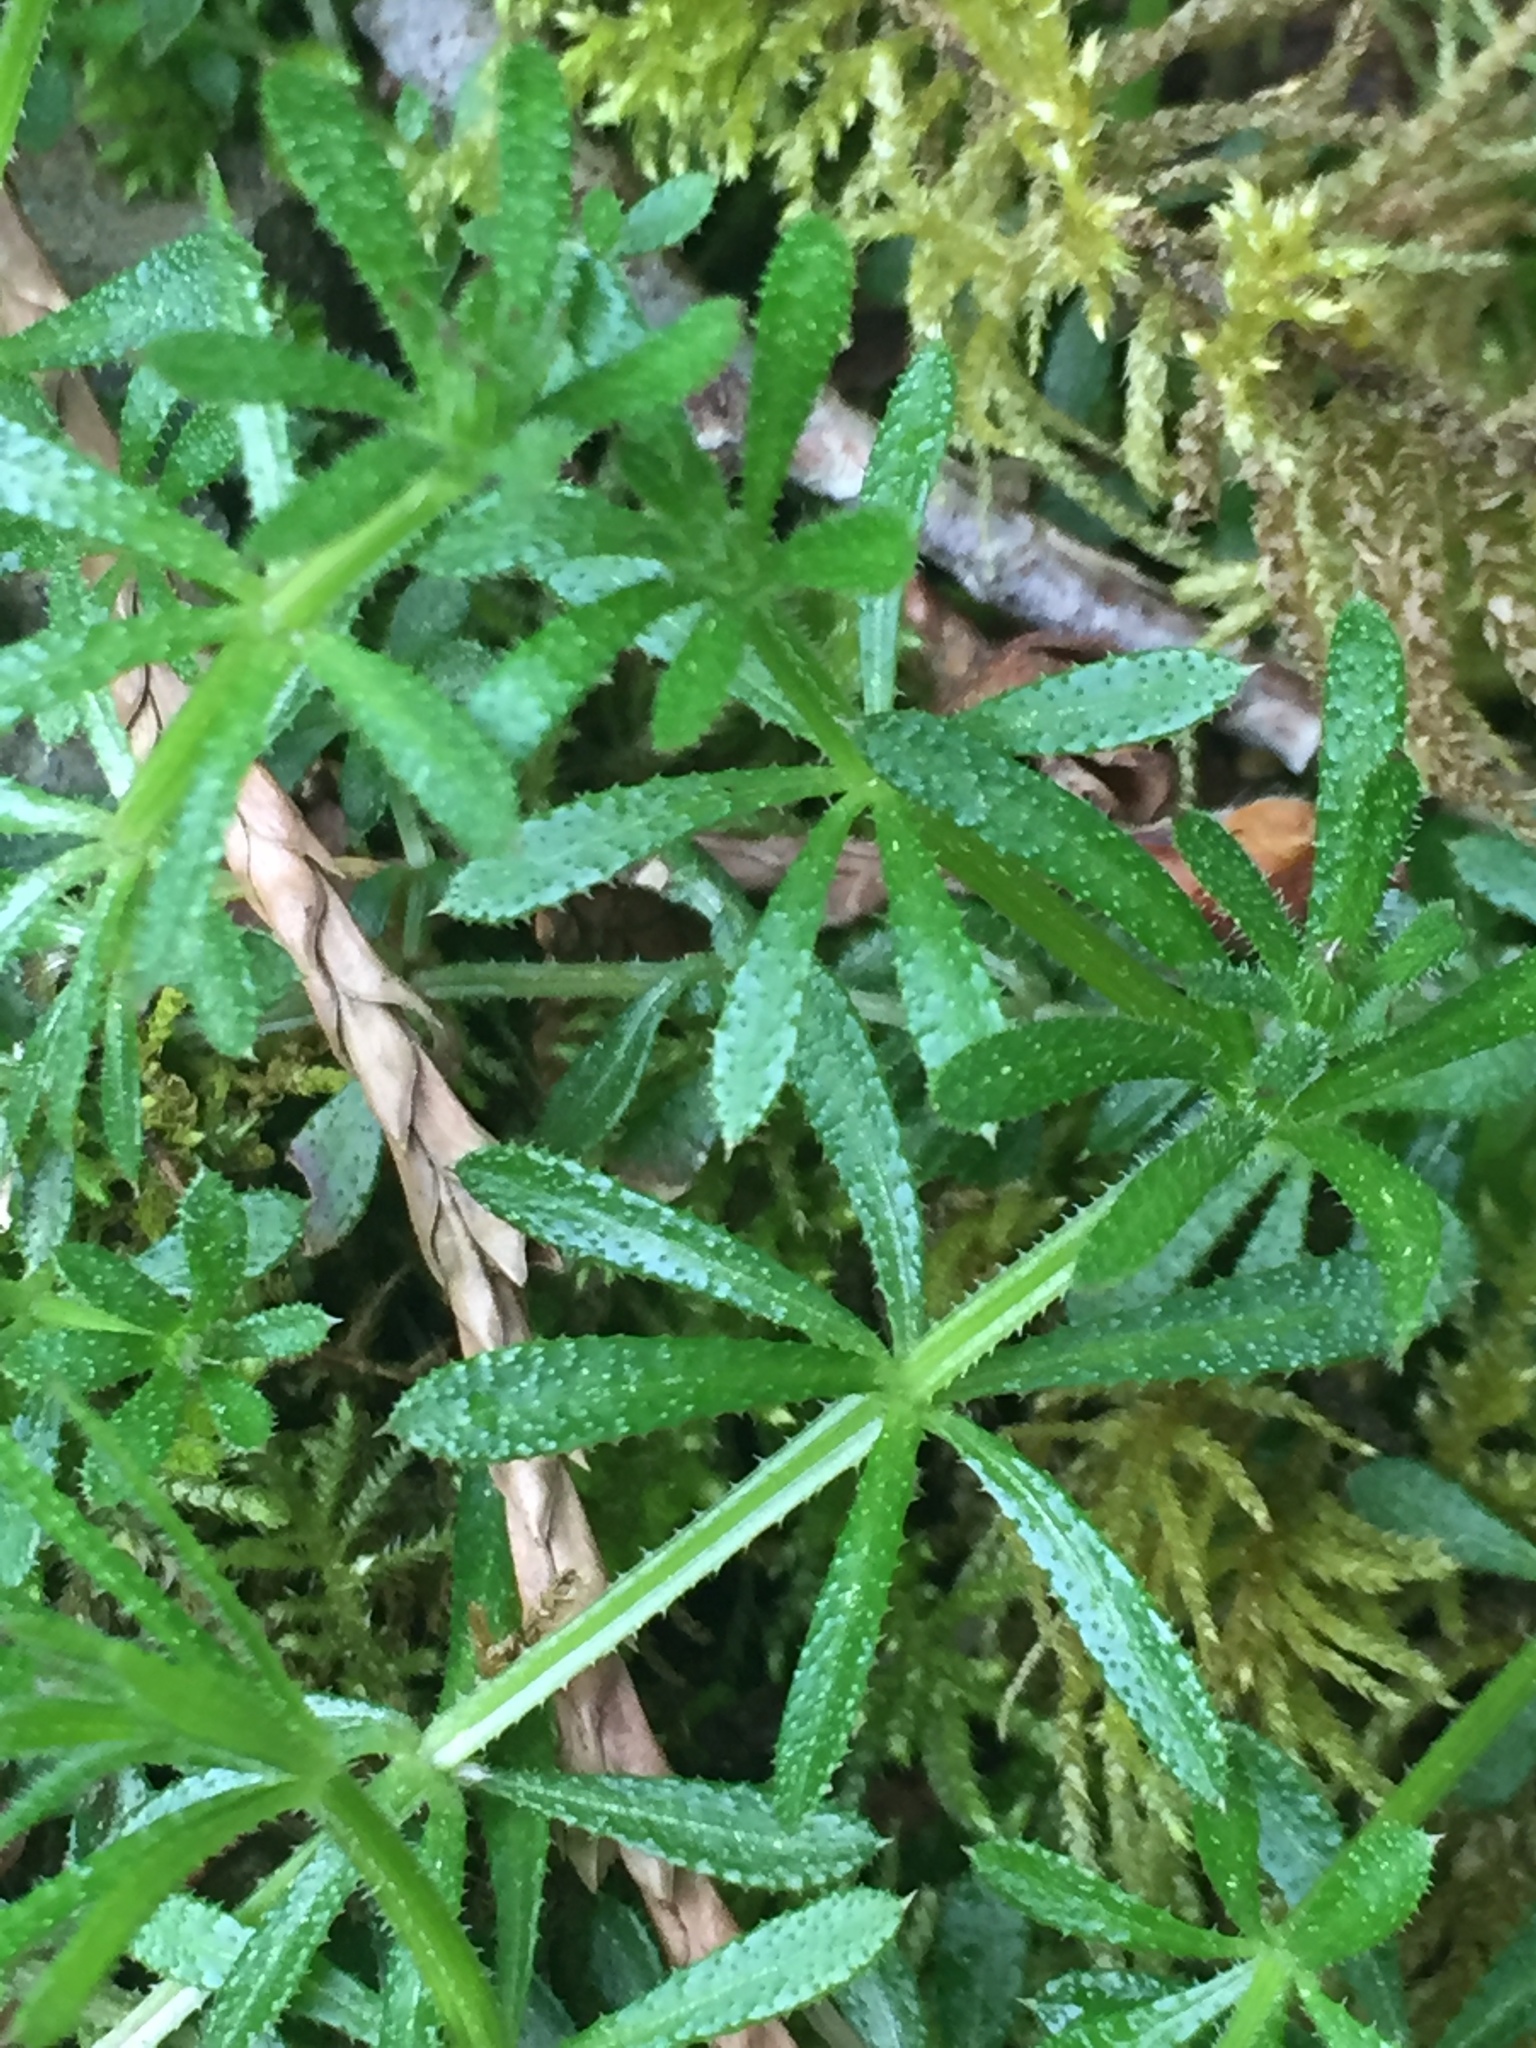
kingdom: Plantae
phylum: Tracheophyta
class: Magnoliopsida
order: Gentianales
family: Rubiaceae
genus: Galium
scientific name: Galium aparine
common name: Cleavers
